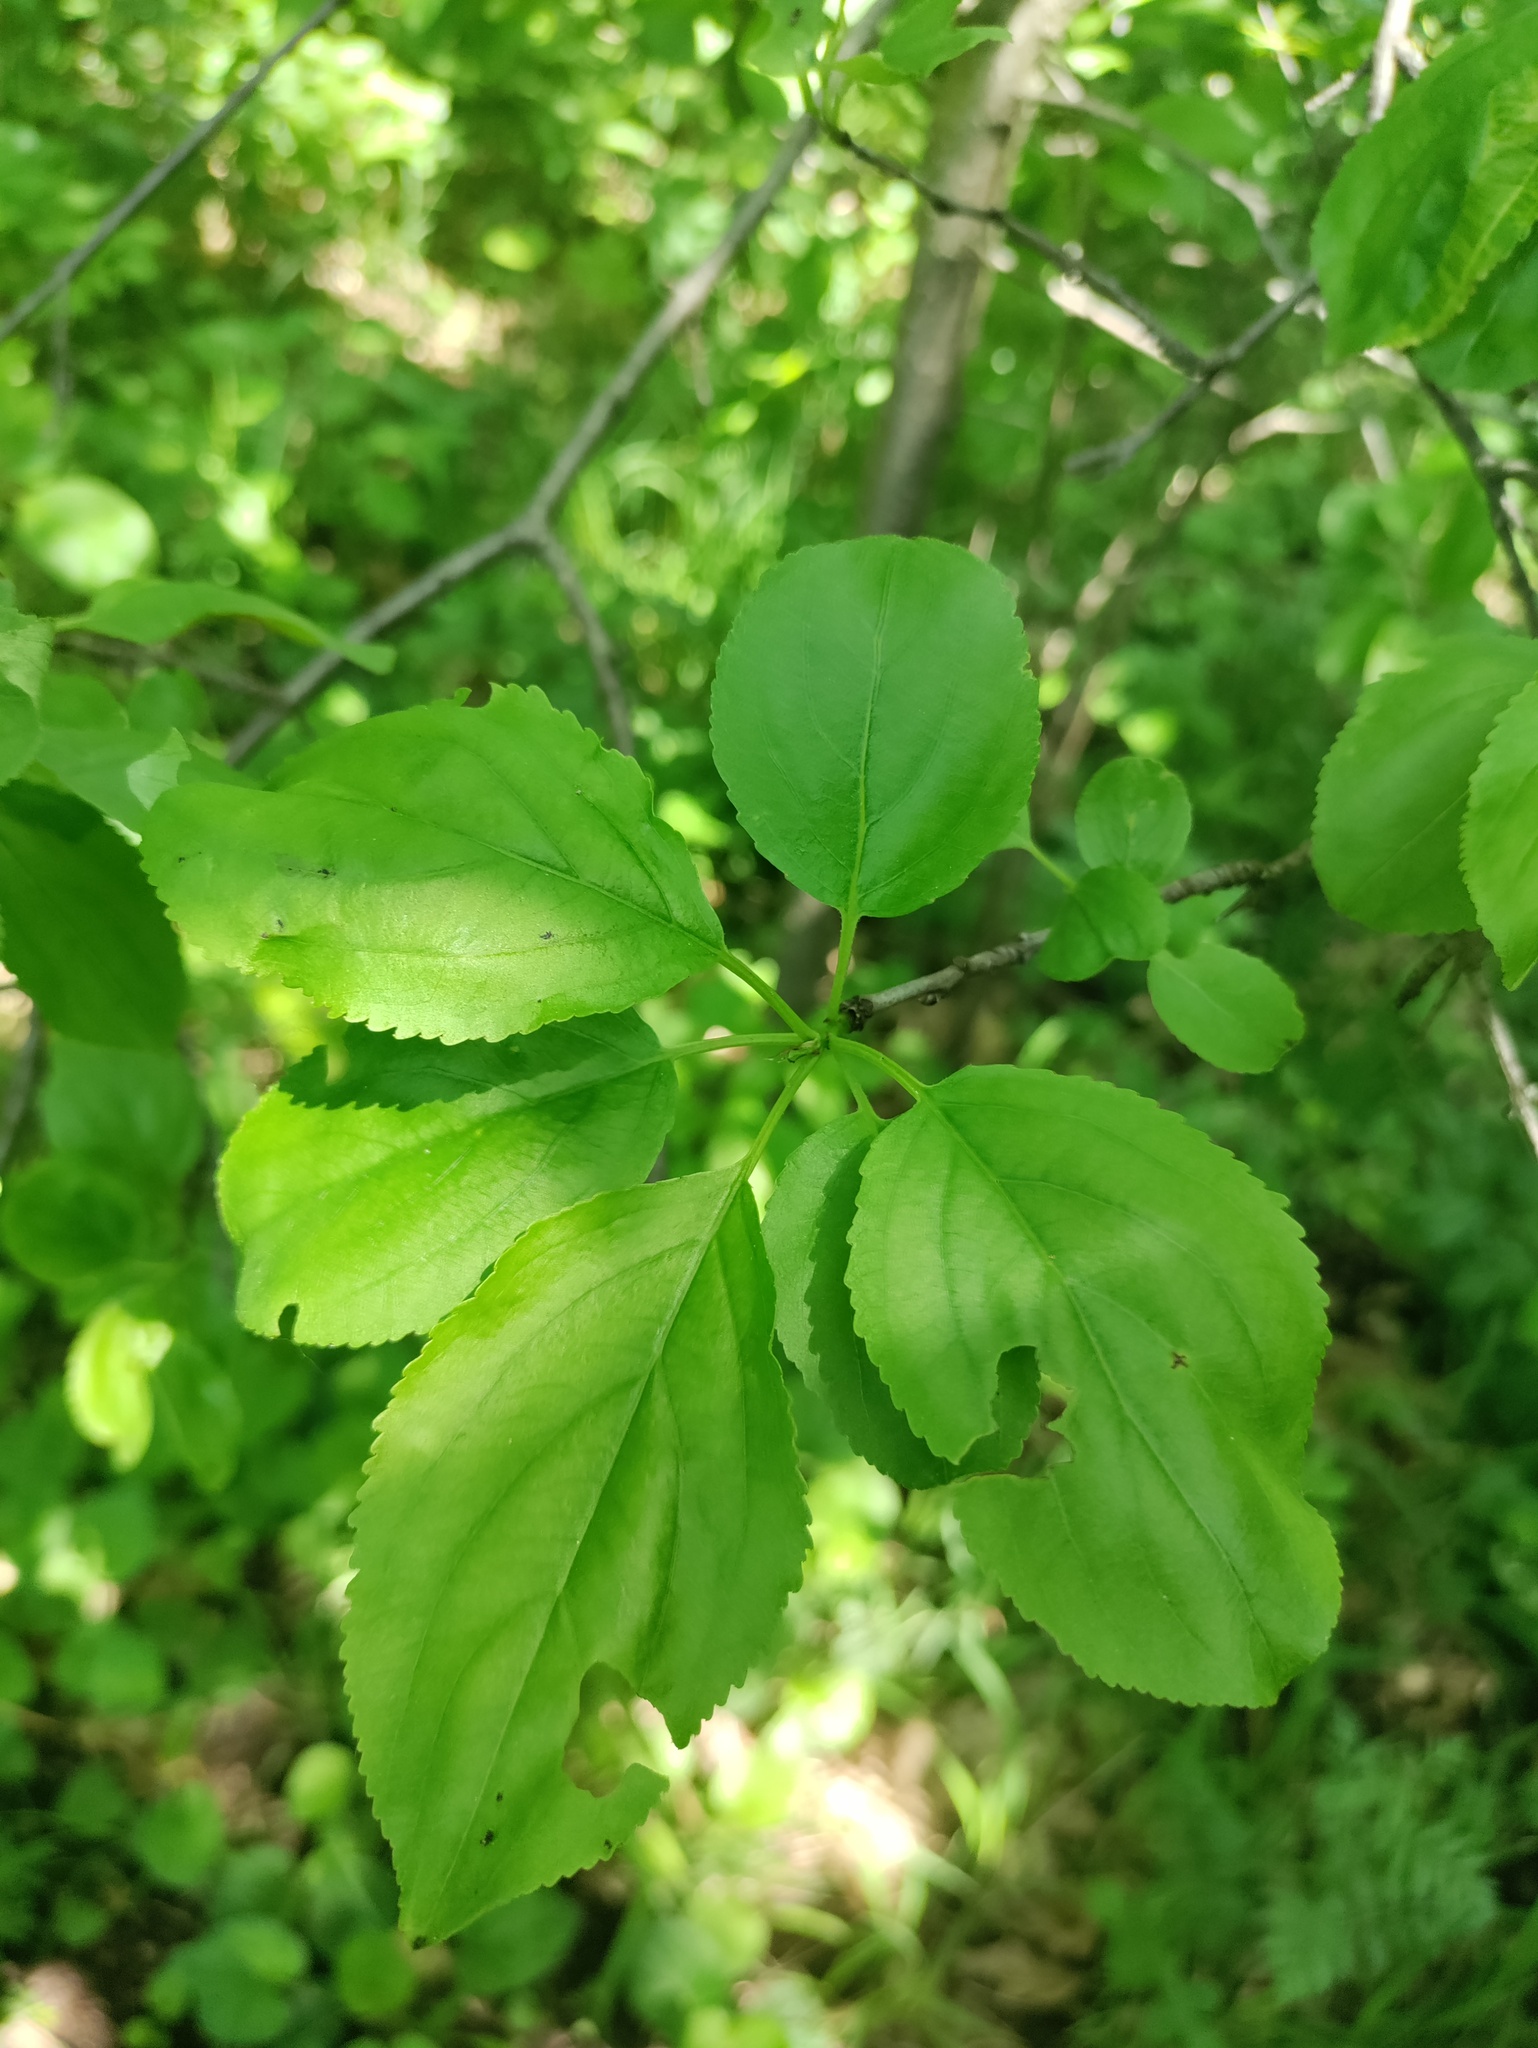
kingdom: Plantae
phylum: Tracheophyta
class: Magnoliopsida
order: Rosales
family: Rhamnaceae
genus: Rhamnus
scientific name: Rhamnus cathartica
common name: Common buckthorn
